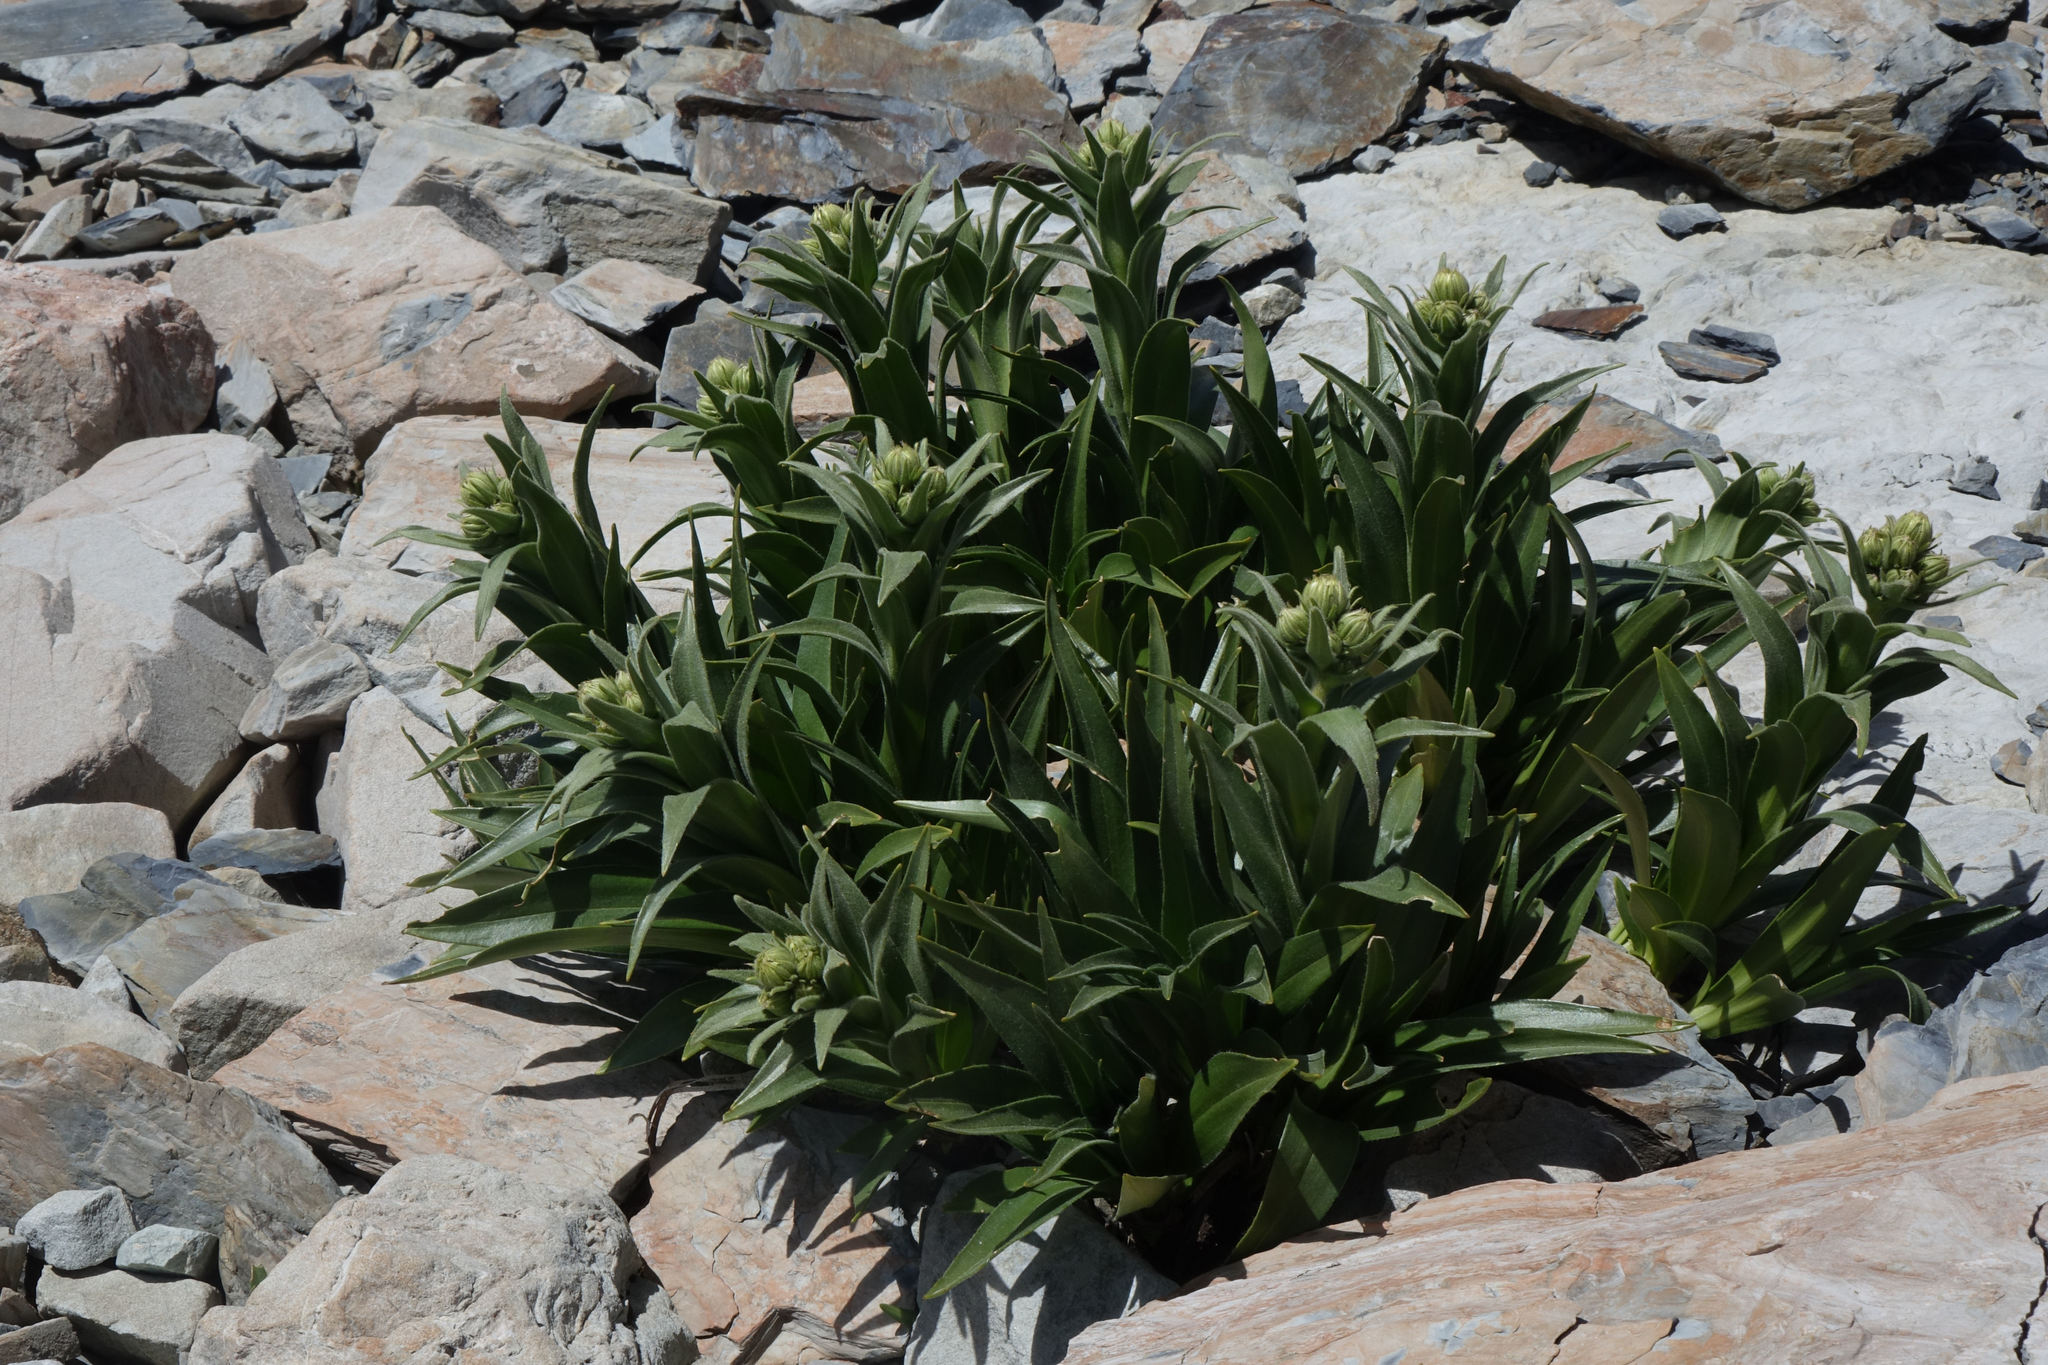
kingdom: Plantae
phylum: Tracheophyta
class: Magnoliopsida
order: Asterales
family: Asteraceae
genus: Dolichoglottis
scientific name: Dolichoglottis scorzoneroides
